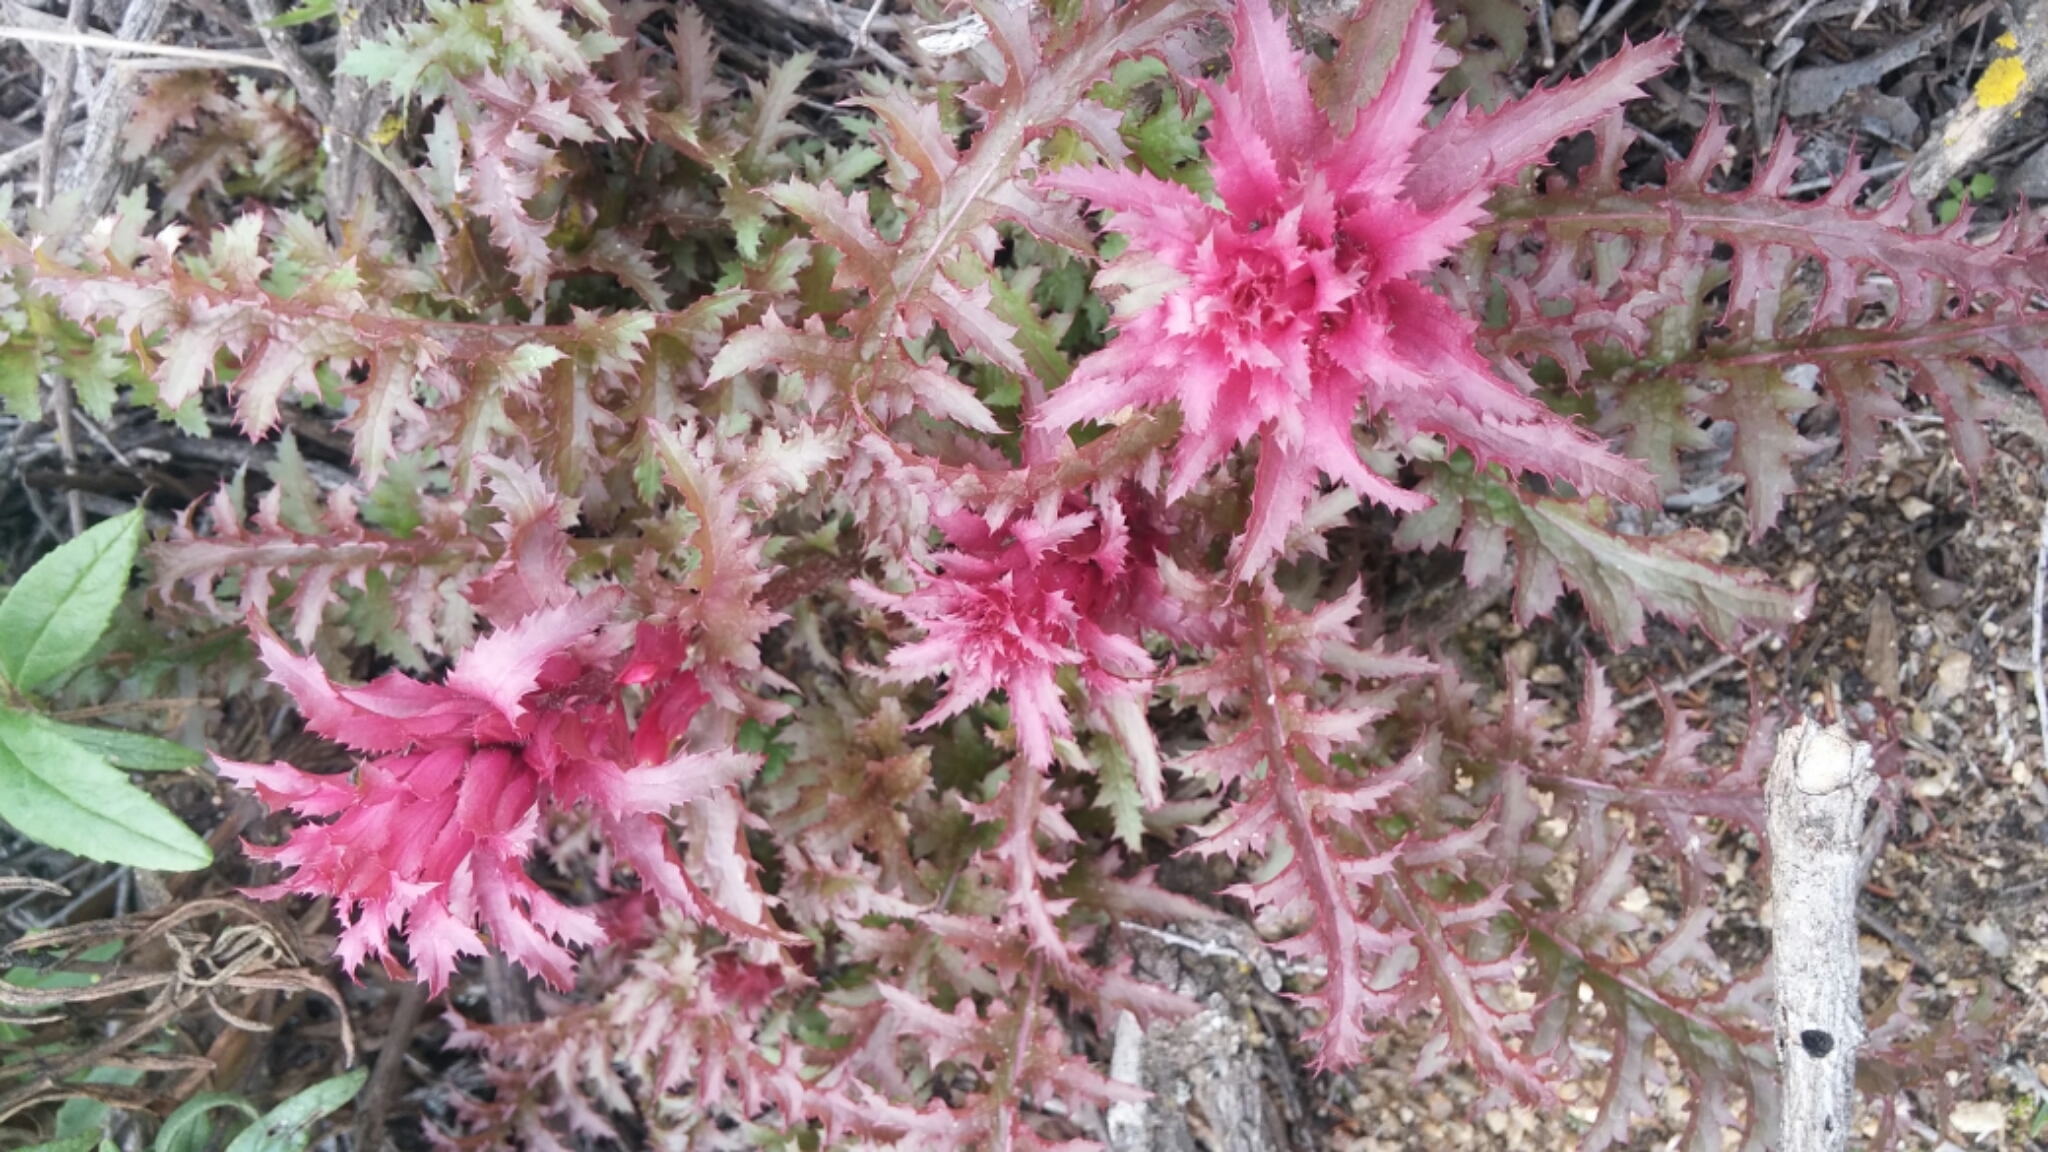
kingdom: Plantae
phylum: Tracheophyta
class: Magnoliopsida
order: Lamiales
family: Orobanchaceae
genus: Pedicularis
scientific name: Pedicularis densiflora
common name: Indian warrior
